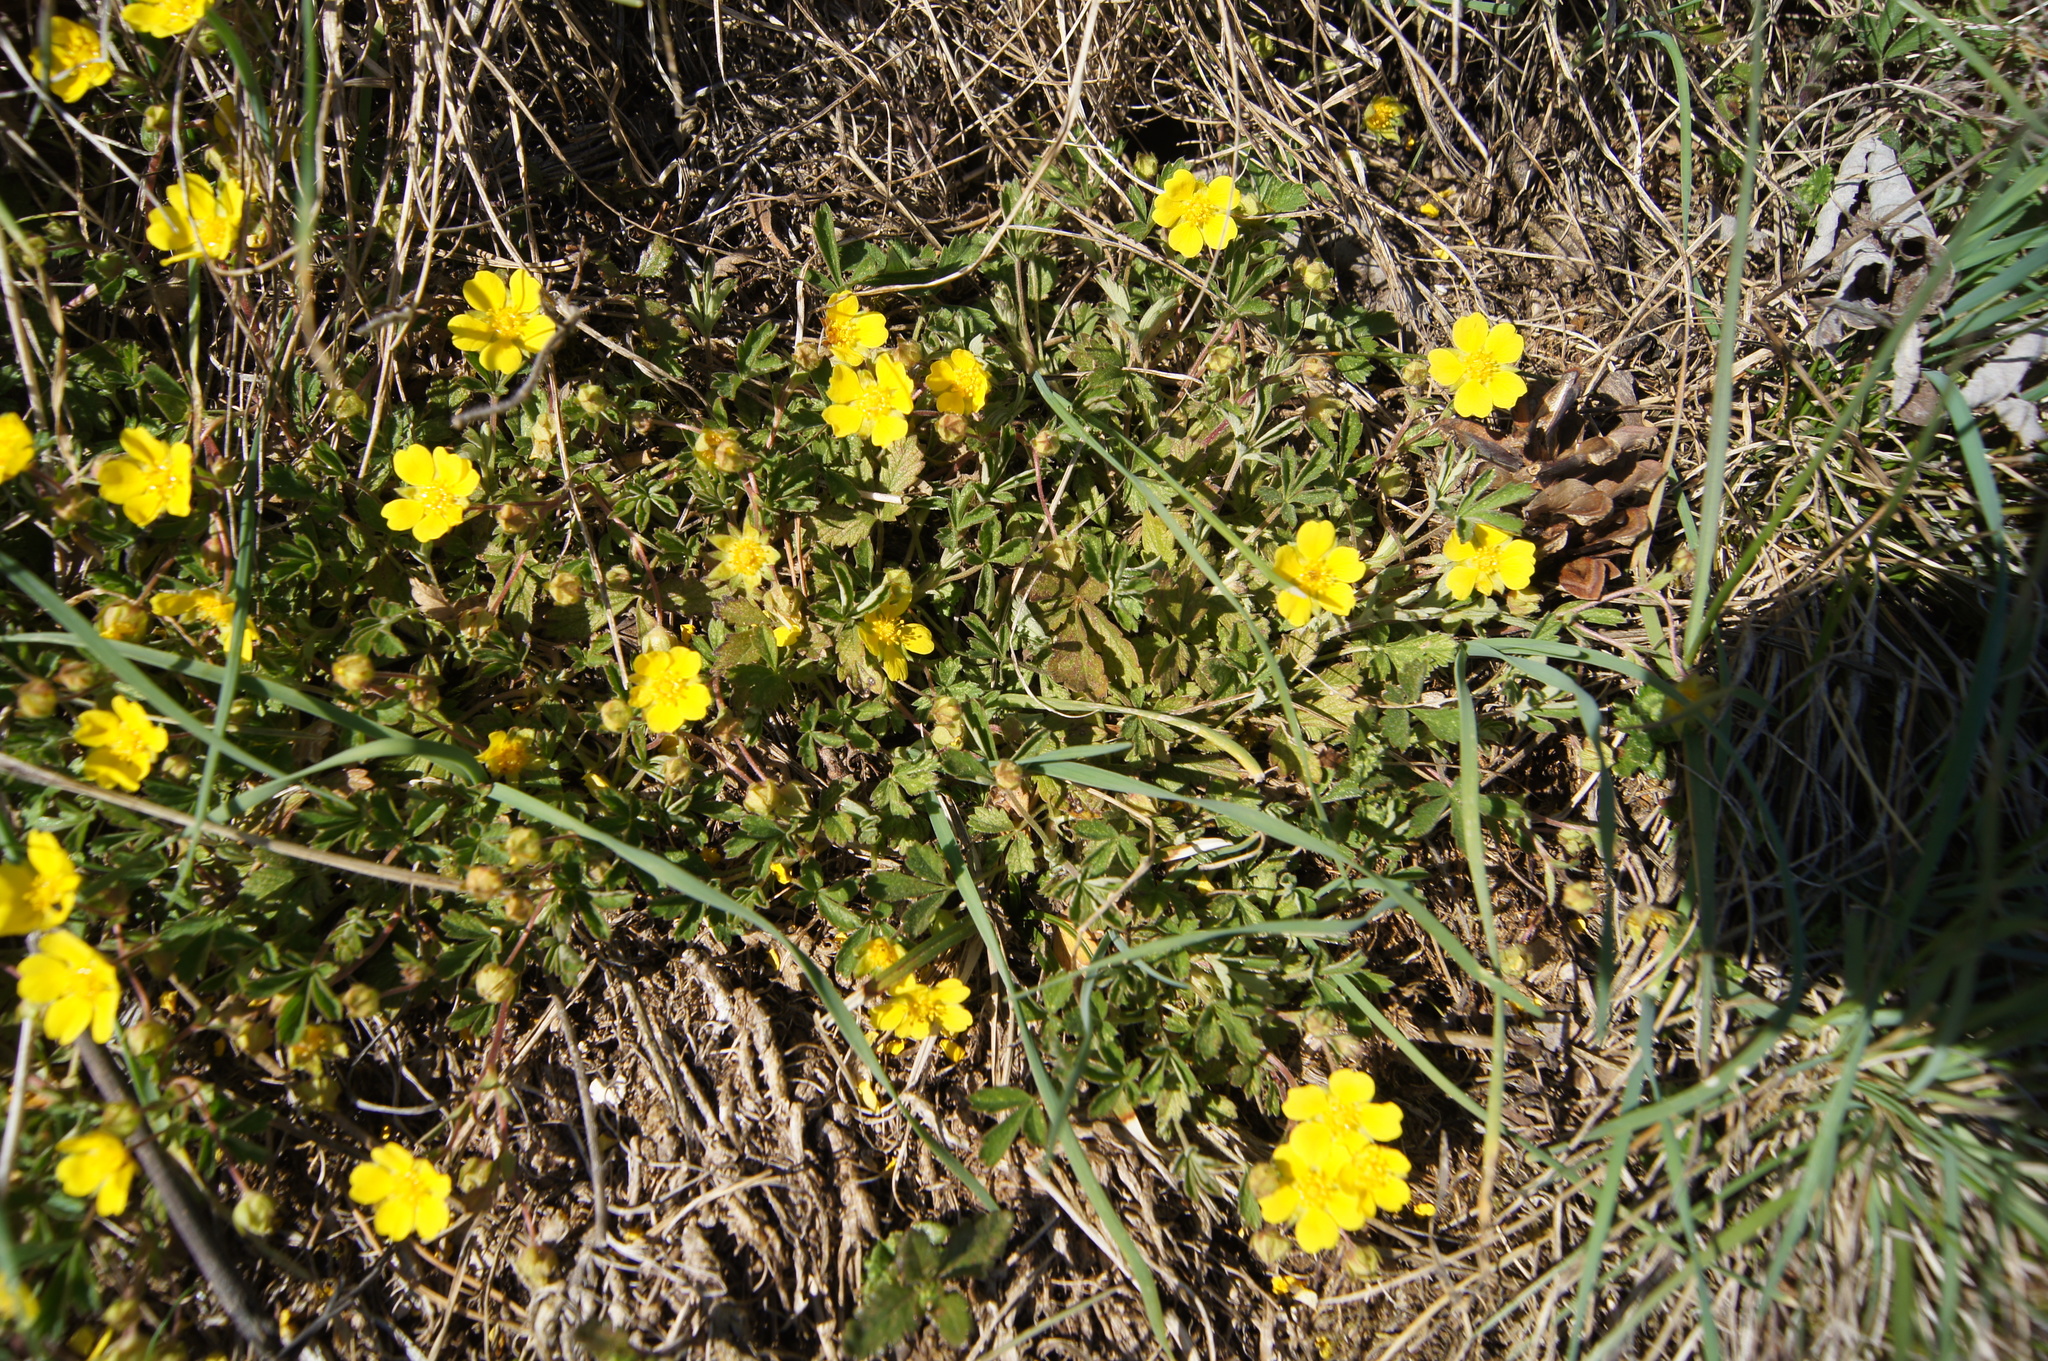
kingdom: Plantae
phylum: Tracheophyta
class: Magnoliopsida
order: Rosales
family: Rosaceae
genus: Potentilla
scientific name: Potentilla verna
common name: Spring cinquefoil
